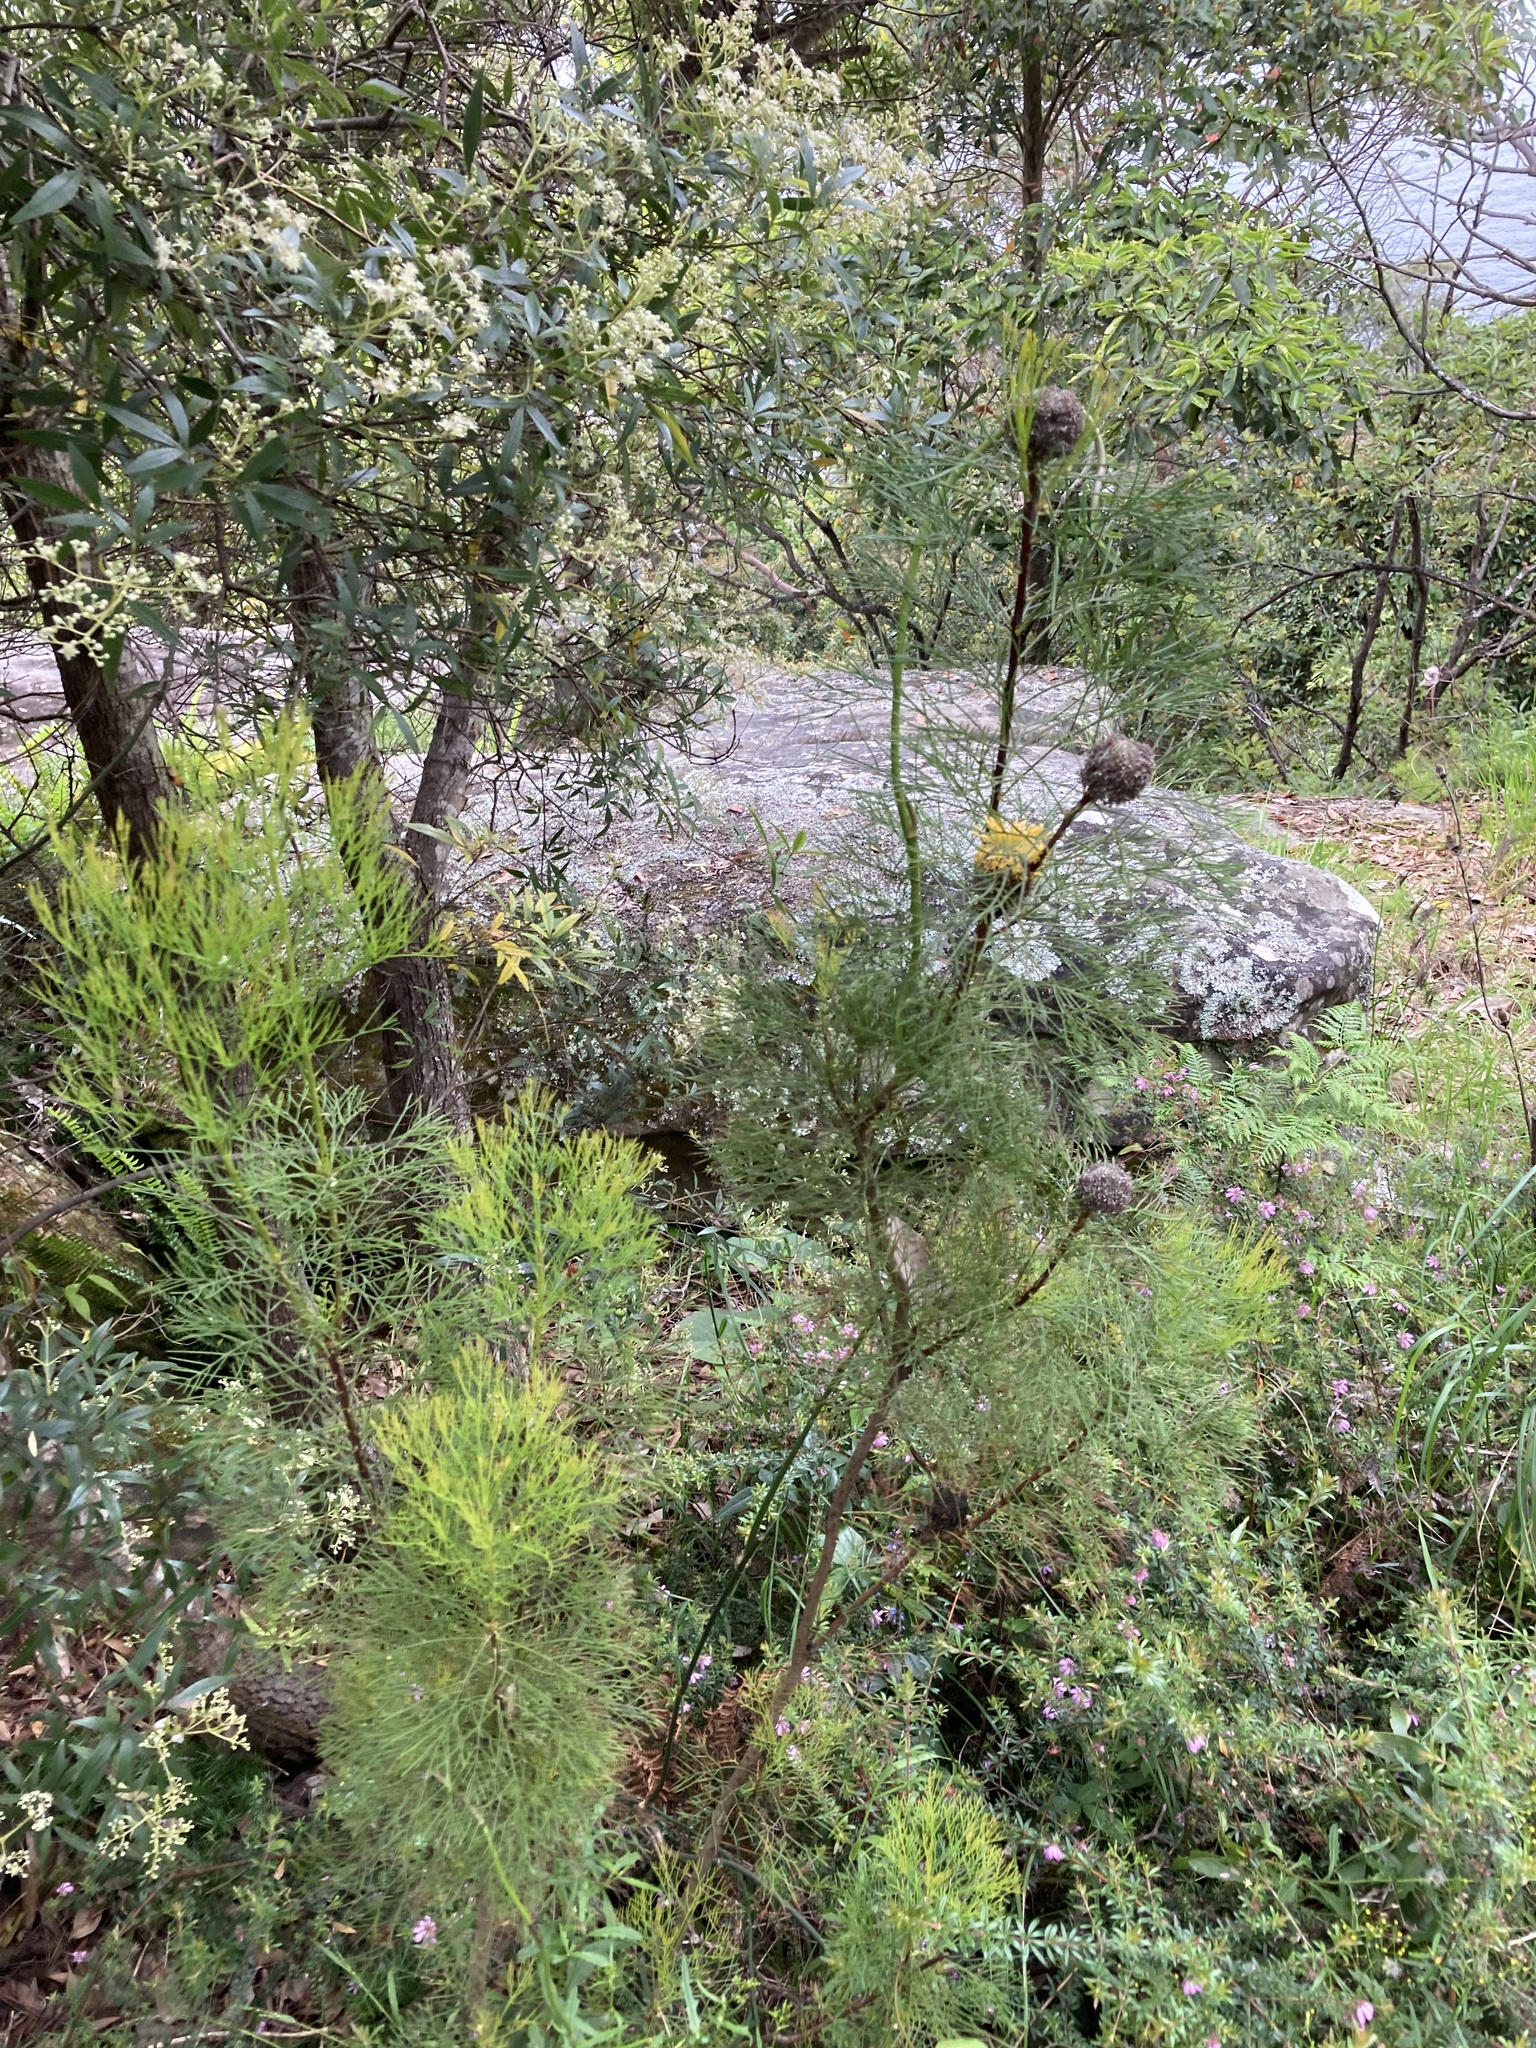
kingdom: Plantae
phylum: Tracheophyta
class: Magnoliopsida
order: Proteales
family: Proteaceae
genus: Isopogon
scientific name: Isopogon anethifolius
